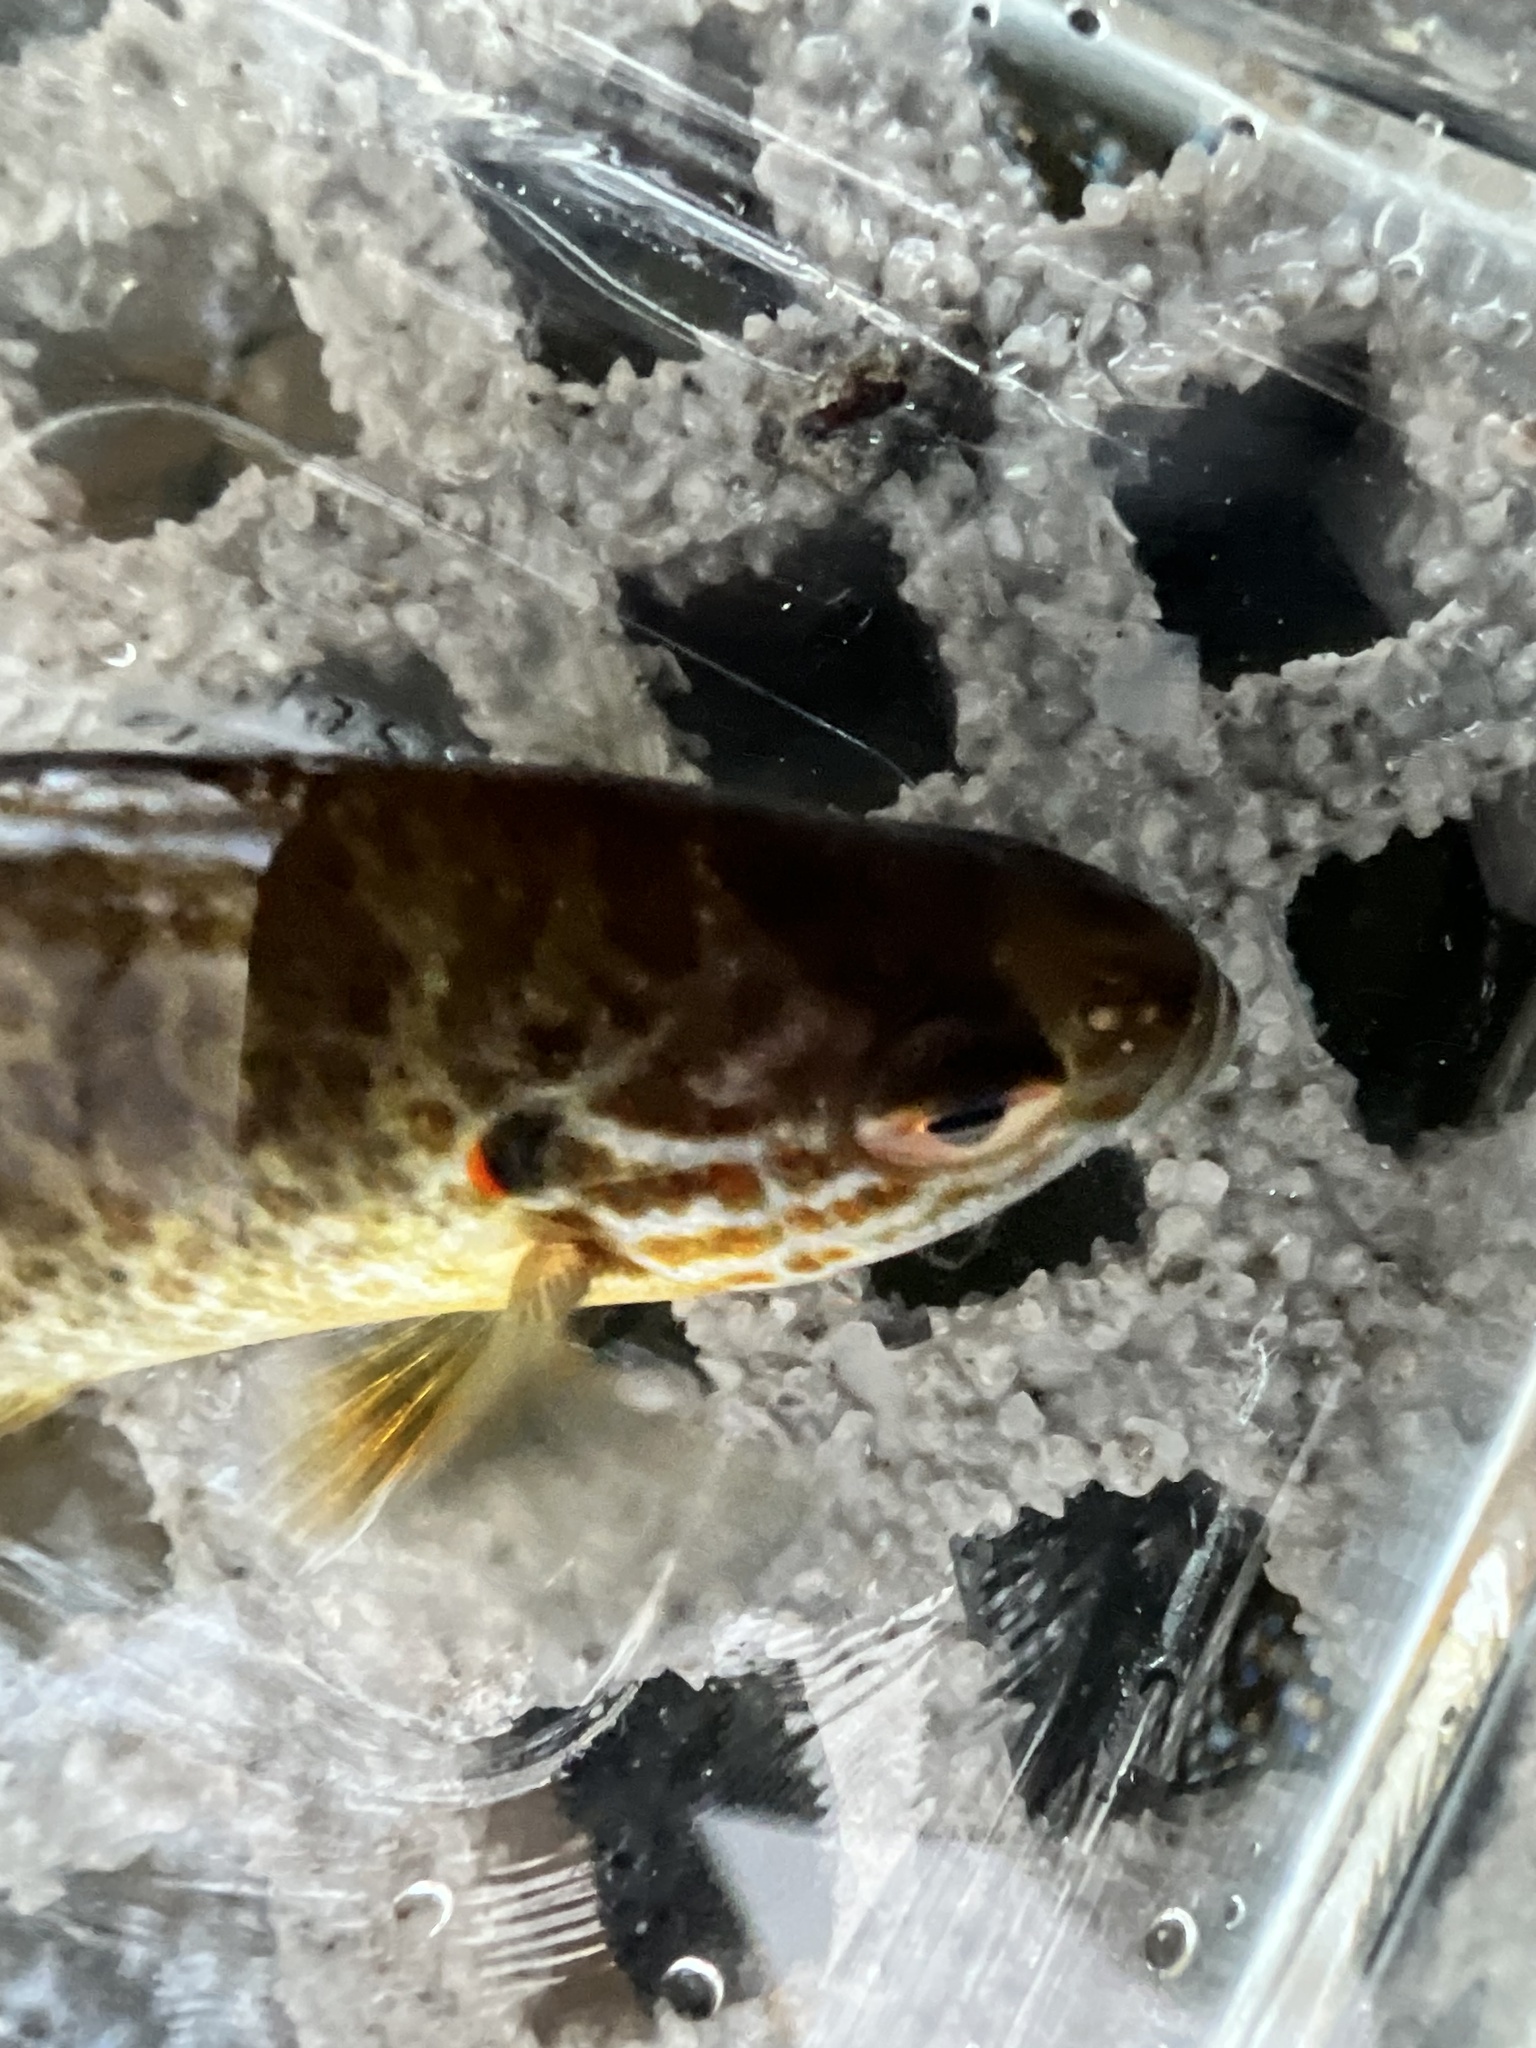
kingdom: Animalia
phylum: Chordata
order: Perciformes
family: Centrarchidae
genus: Lepomis
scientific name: Lepomis gibbosus
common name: Pumpkinseed
